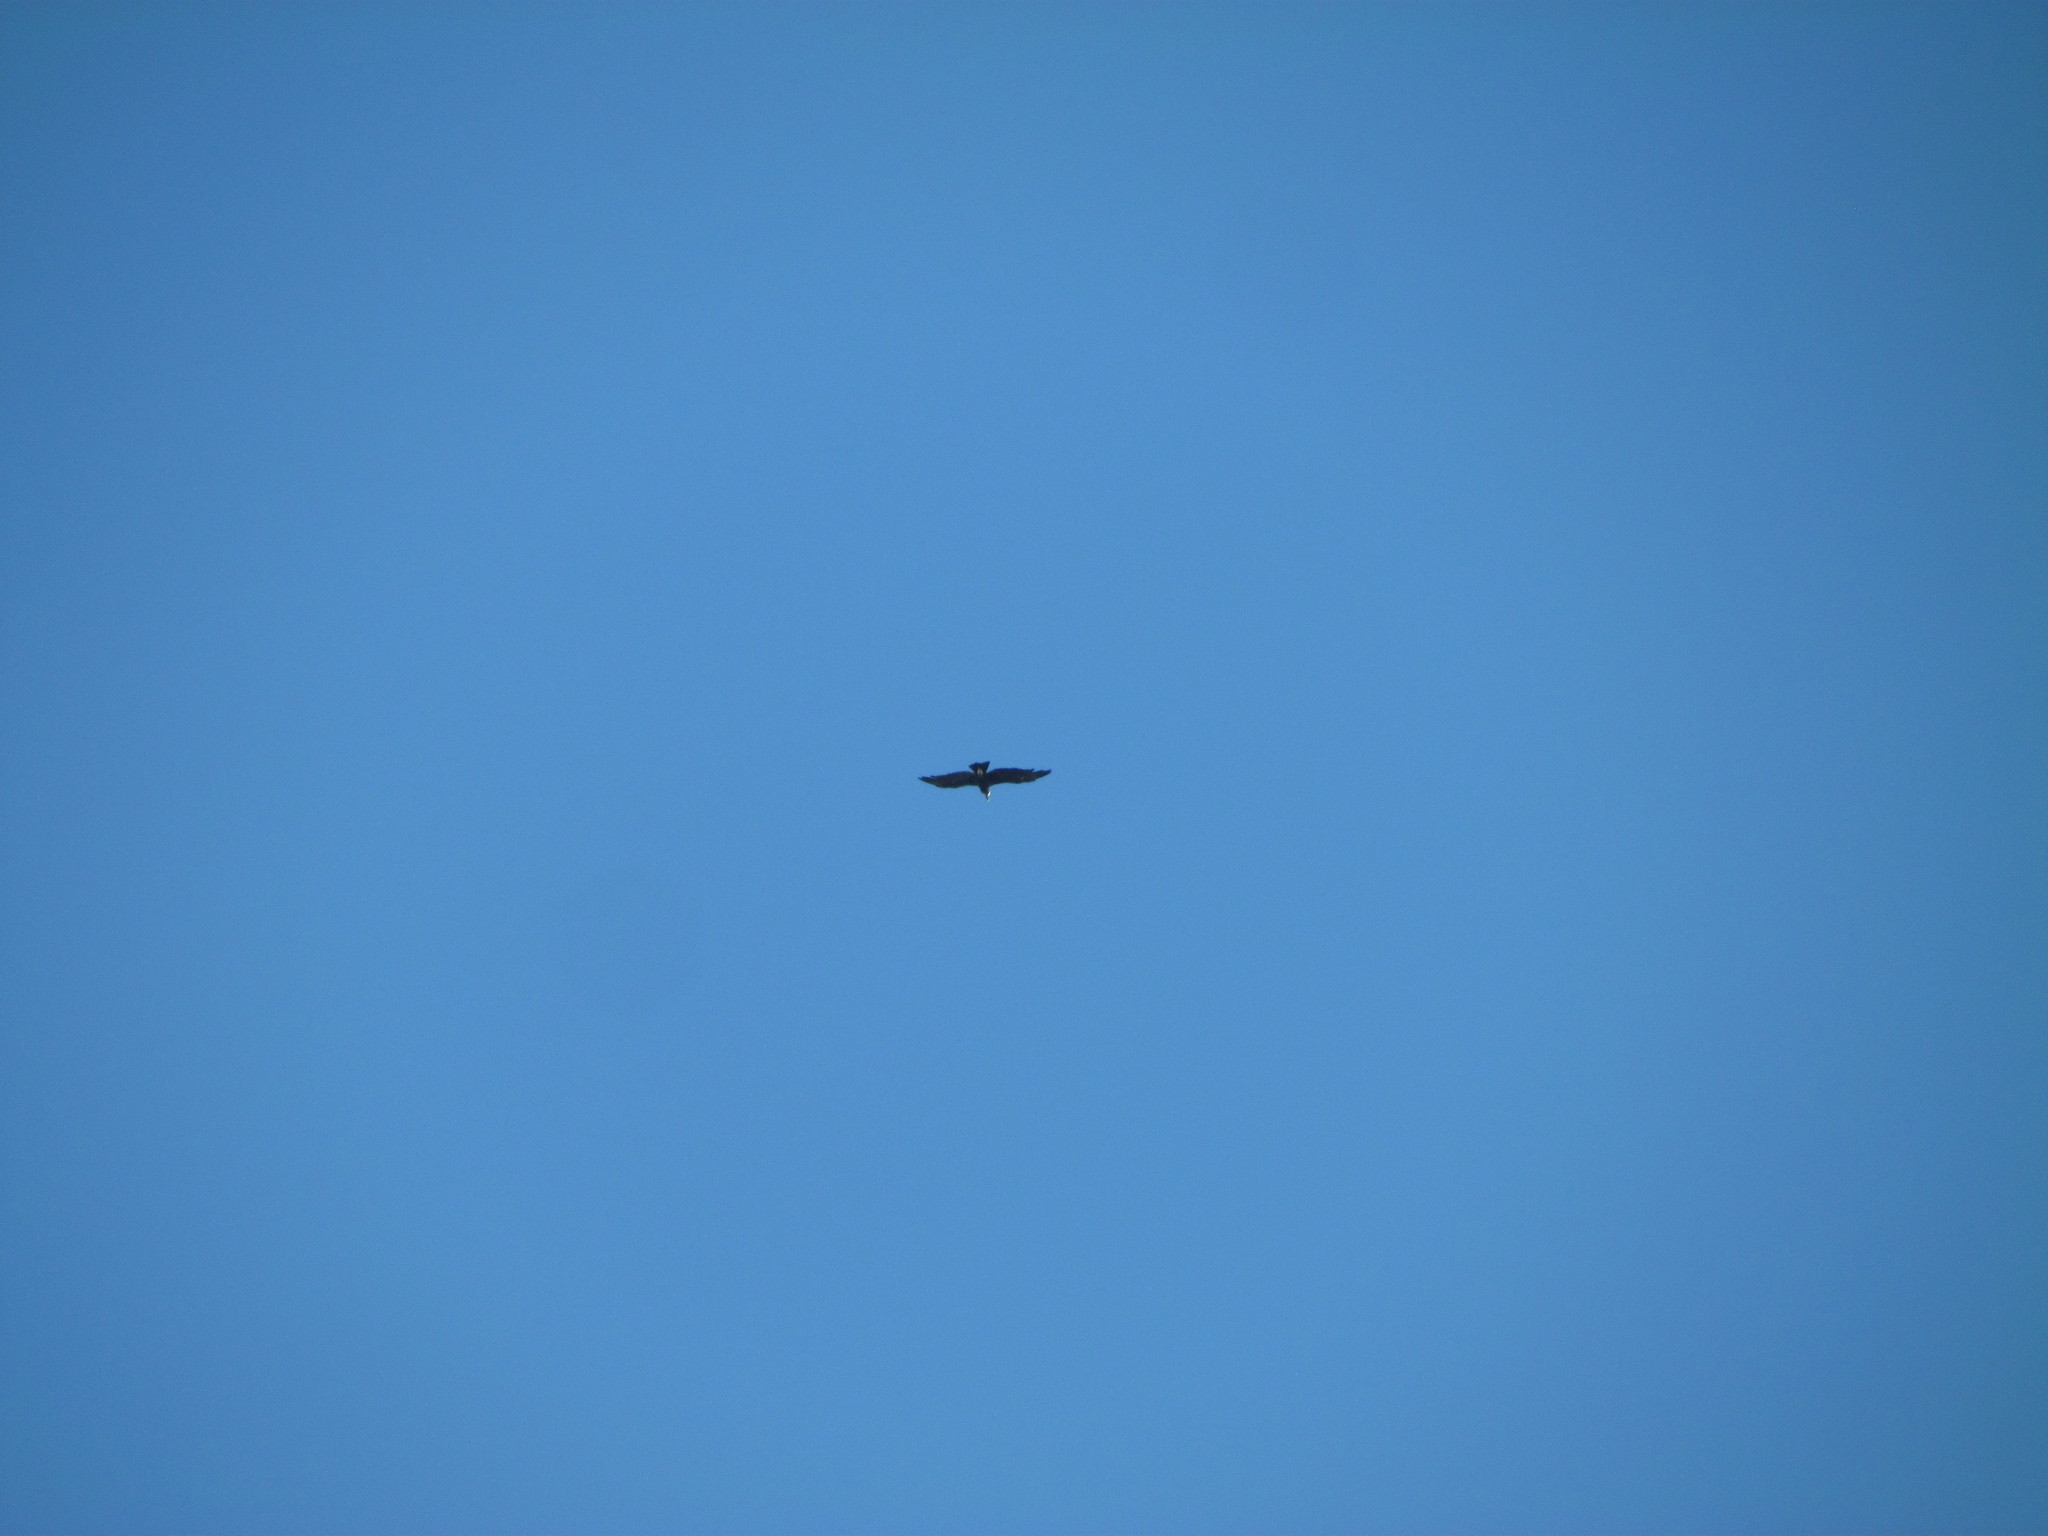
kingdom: Animalia
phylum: Chordata
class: Aves
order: Accipitriformes
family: Cathartidae
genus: Vultur
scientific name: Vultur gryphus
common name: Andean condor
